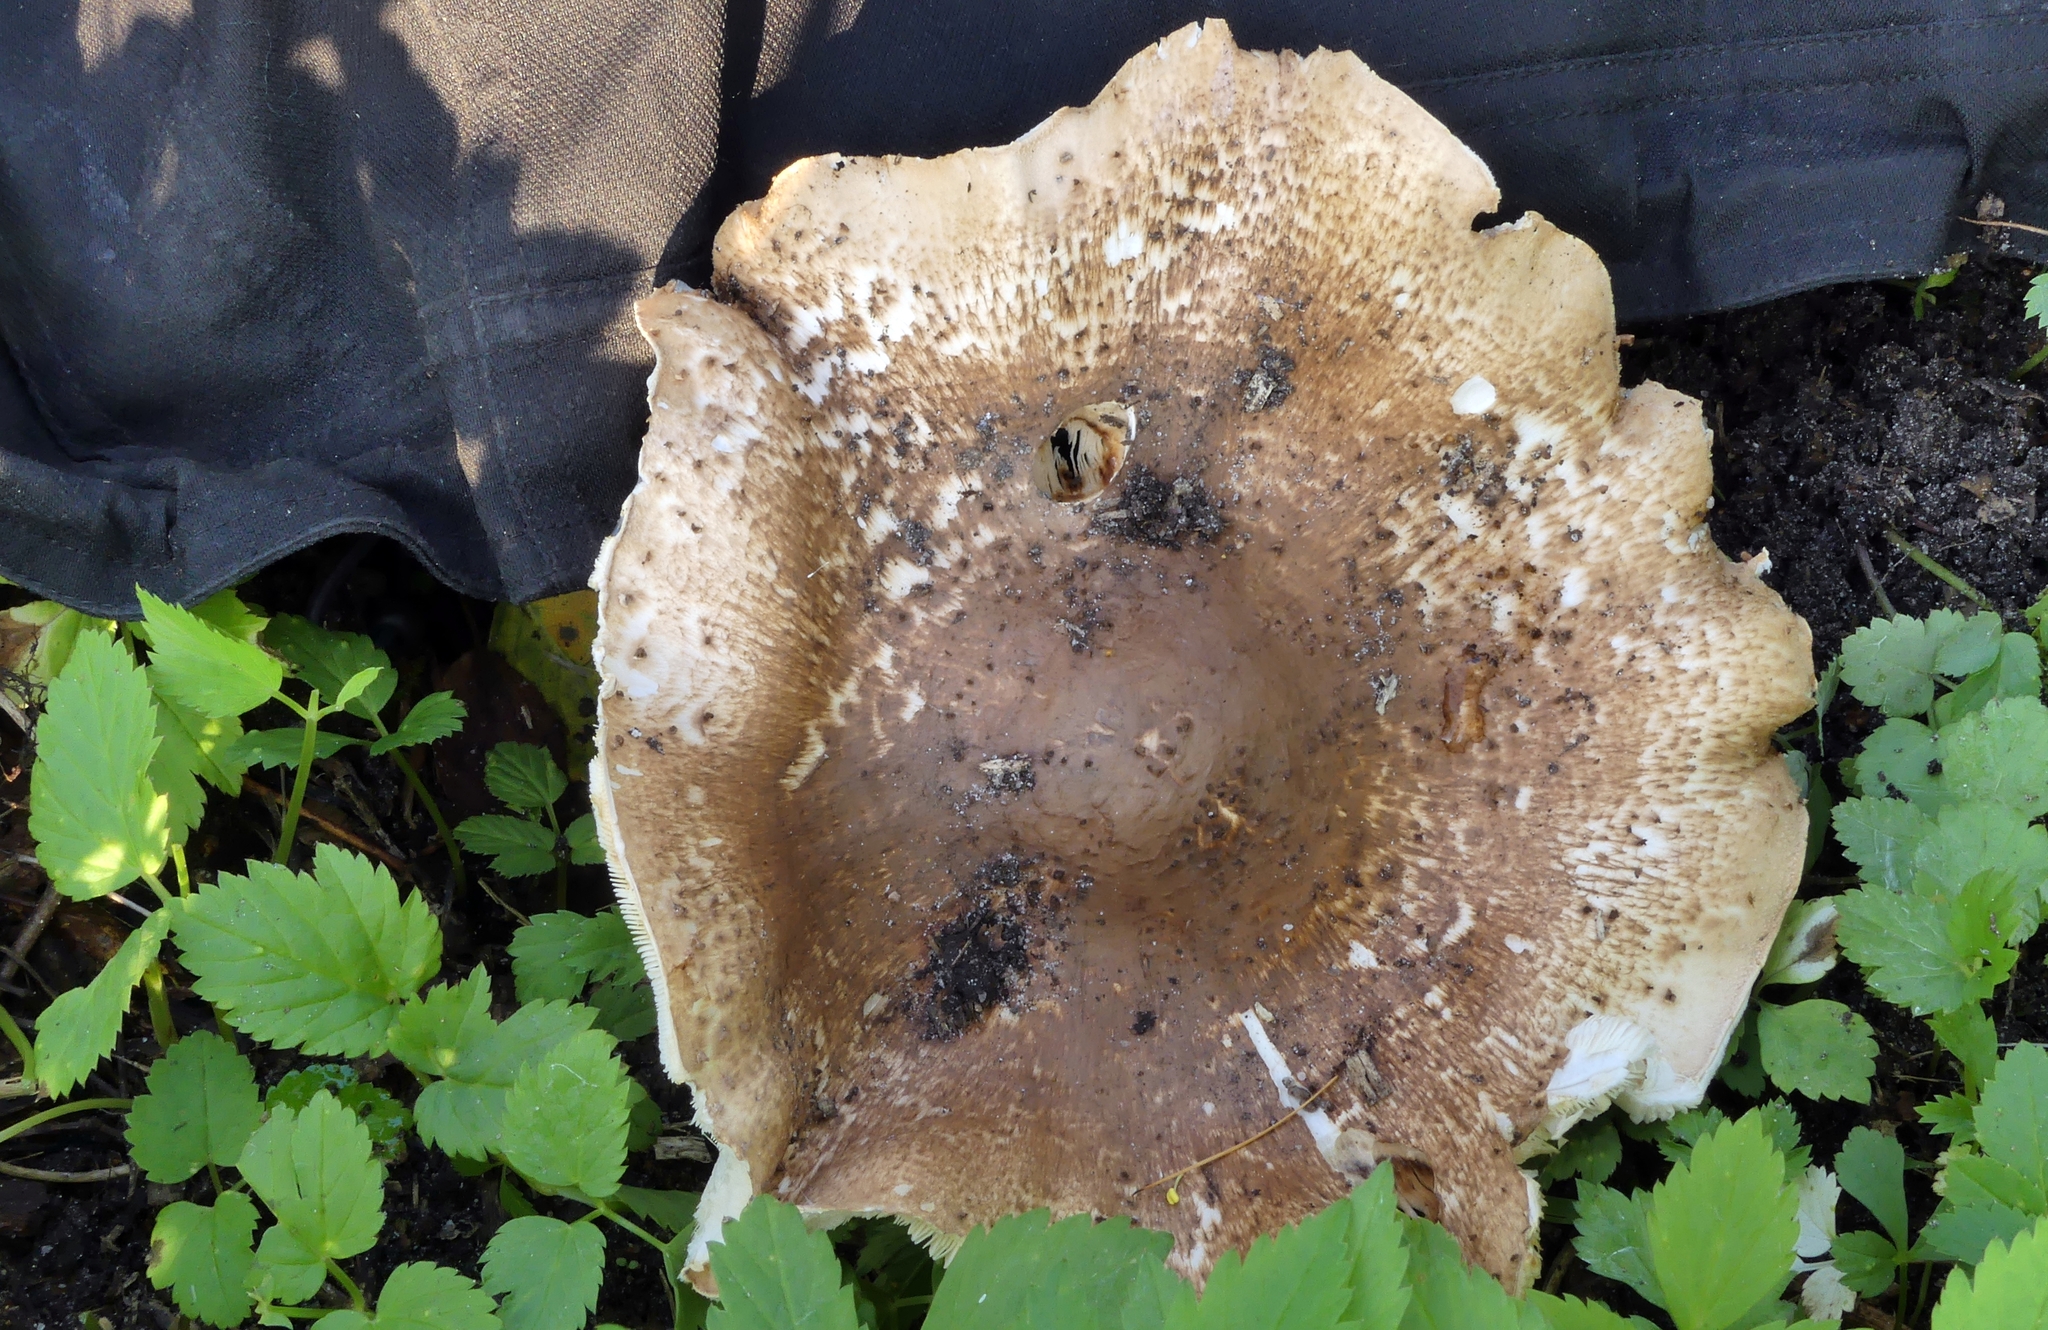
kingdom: Fungi
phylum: Basidiomycota
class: Agaricomycetes
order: Agaricales
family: Agaricaceae
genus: Echinoderma
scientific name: Echinoderma asperum
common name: Freckled dapperling
